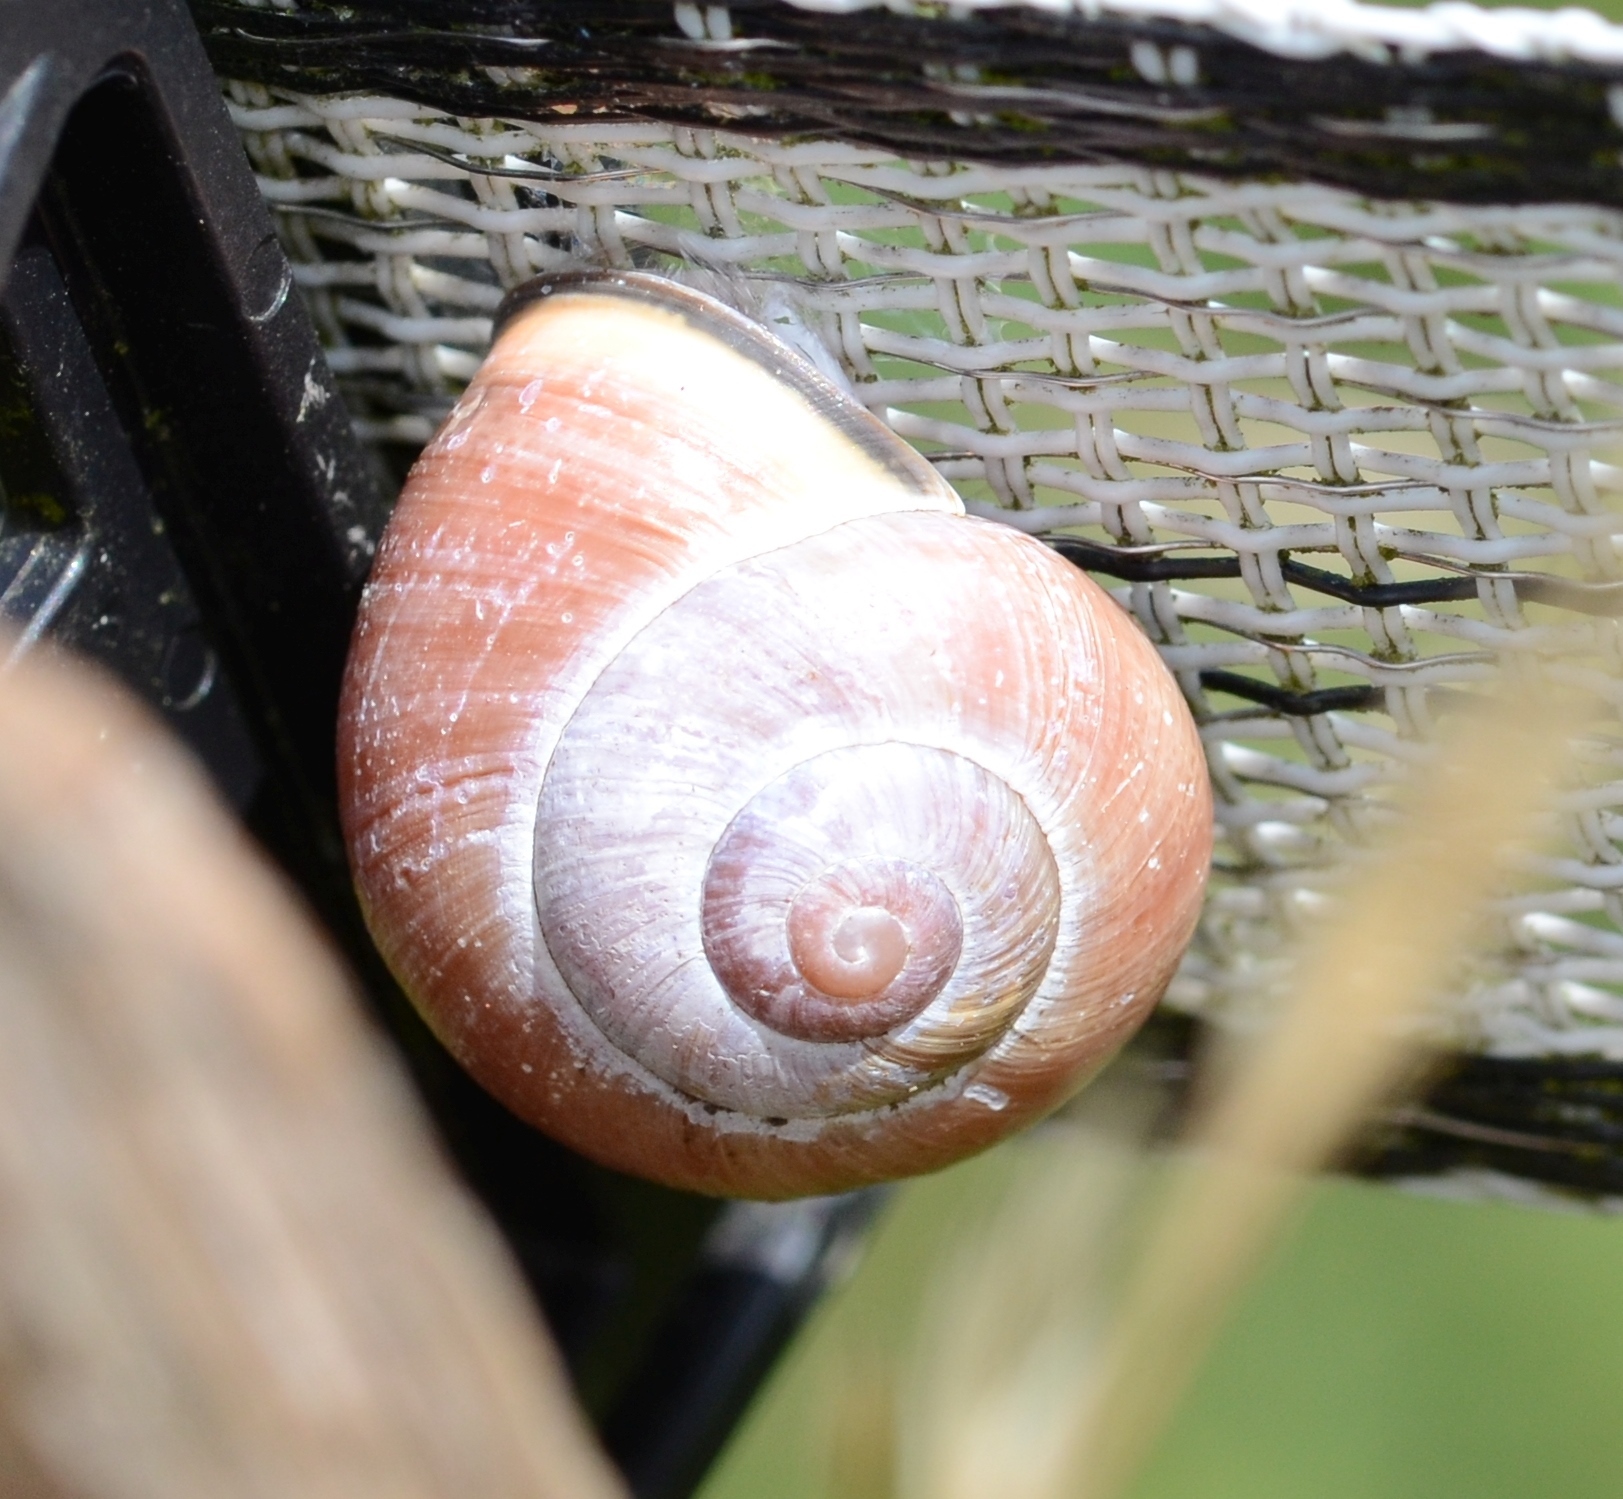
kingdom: Animalia
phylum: Mollusca
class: Gastropoda
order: Stylommatophora
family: Helicidae
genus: Cepaea
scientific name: Cepaea nemoralis
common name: Grovesnail
